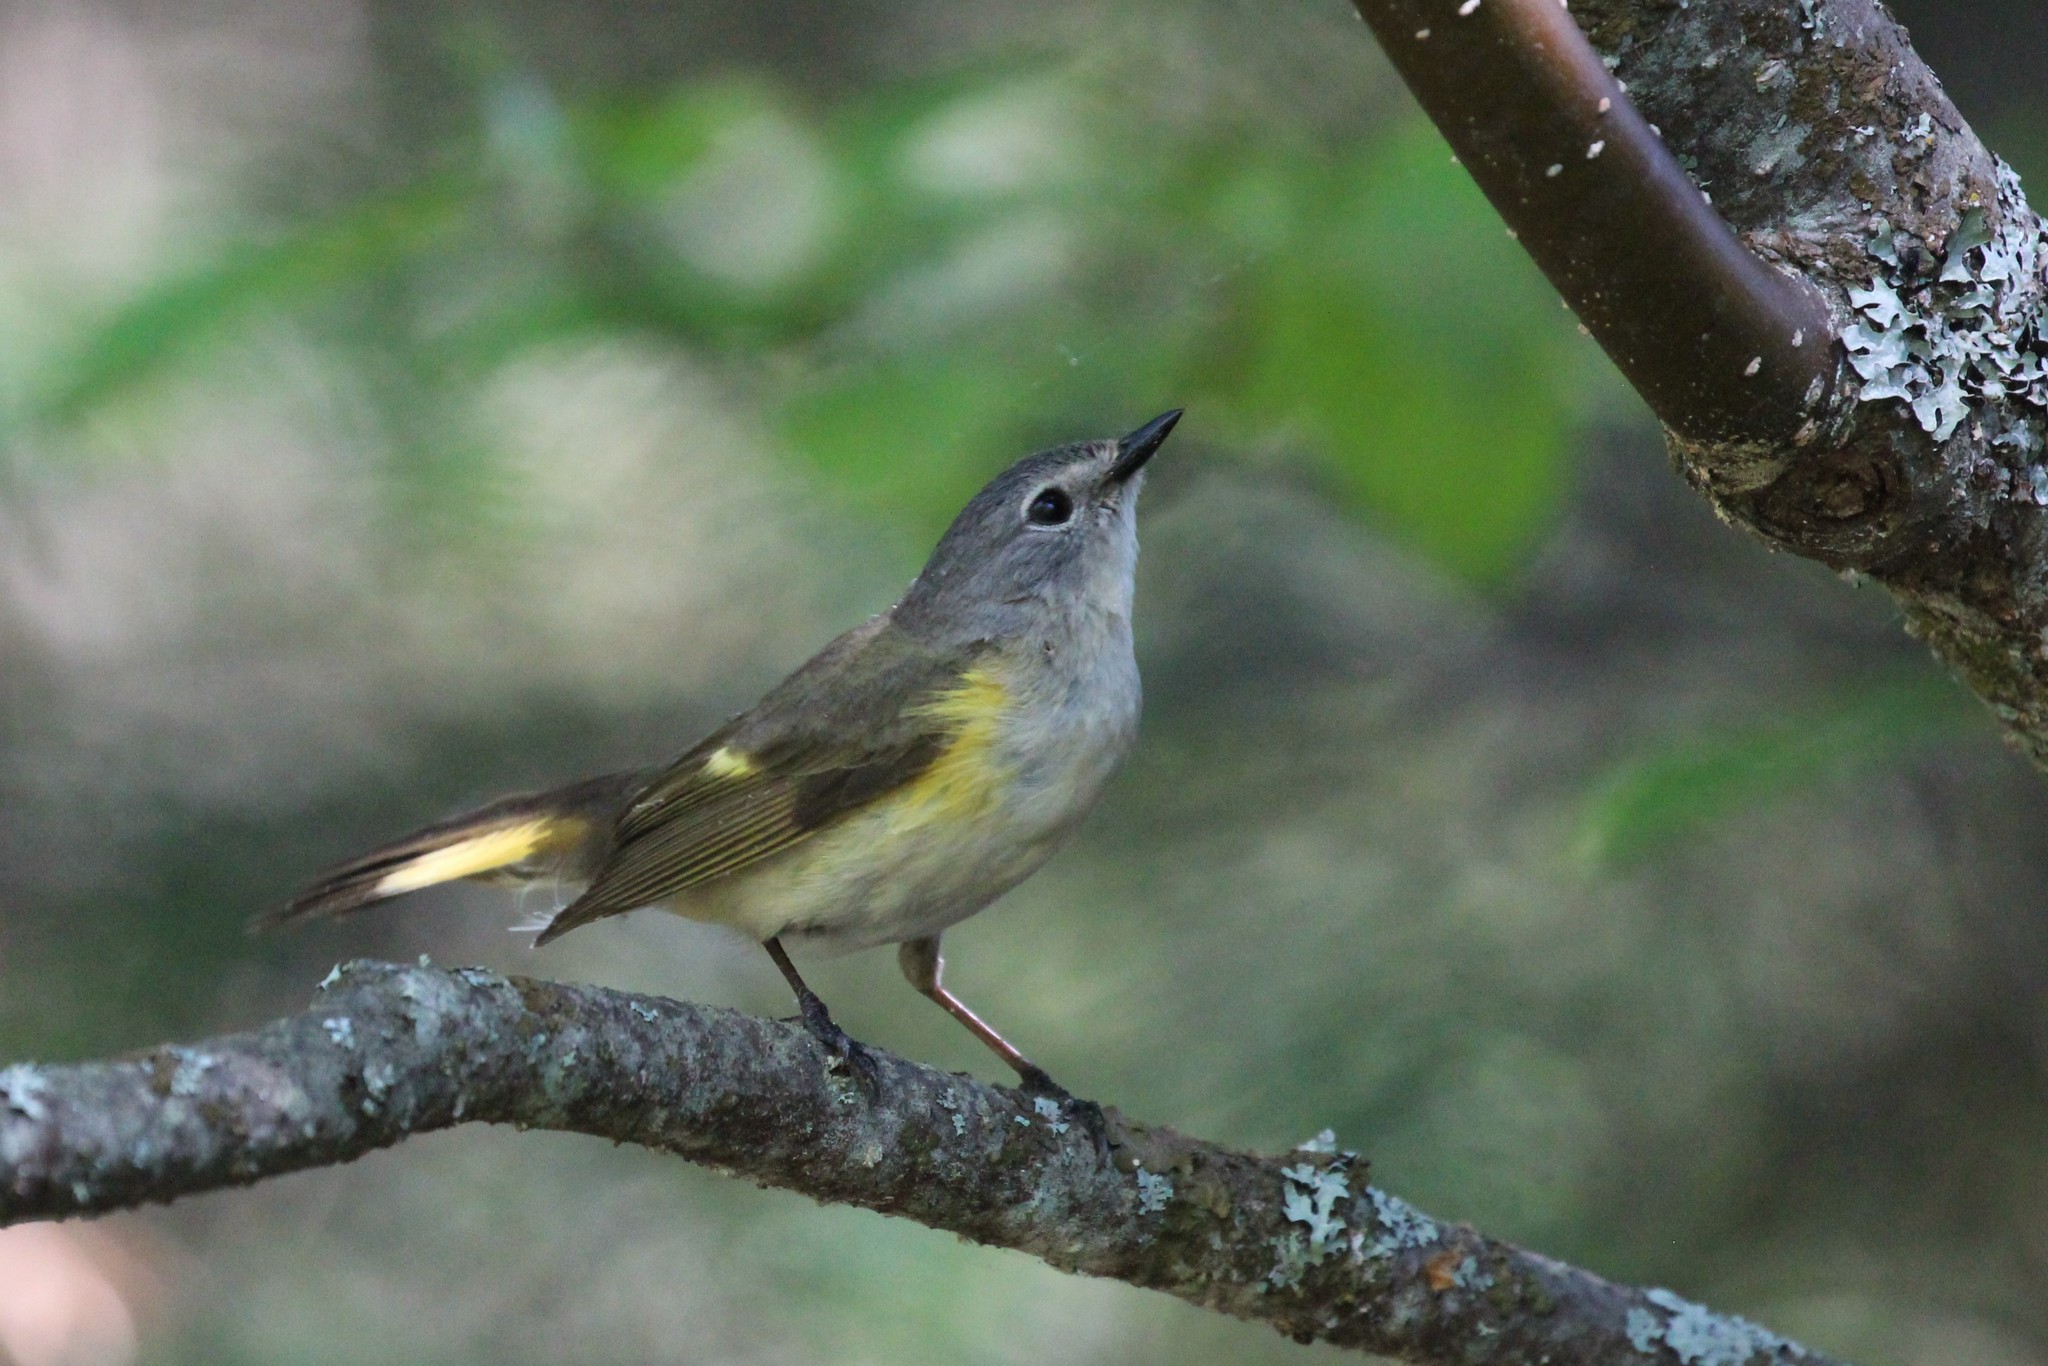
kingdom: Animalia
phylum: Chordata
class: Aves
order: Passeriformes
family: Parulidae
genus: Setophaga
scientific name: Setophaga ruticilla
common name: American redstart
